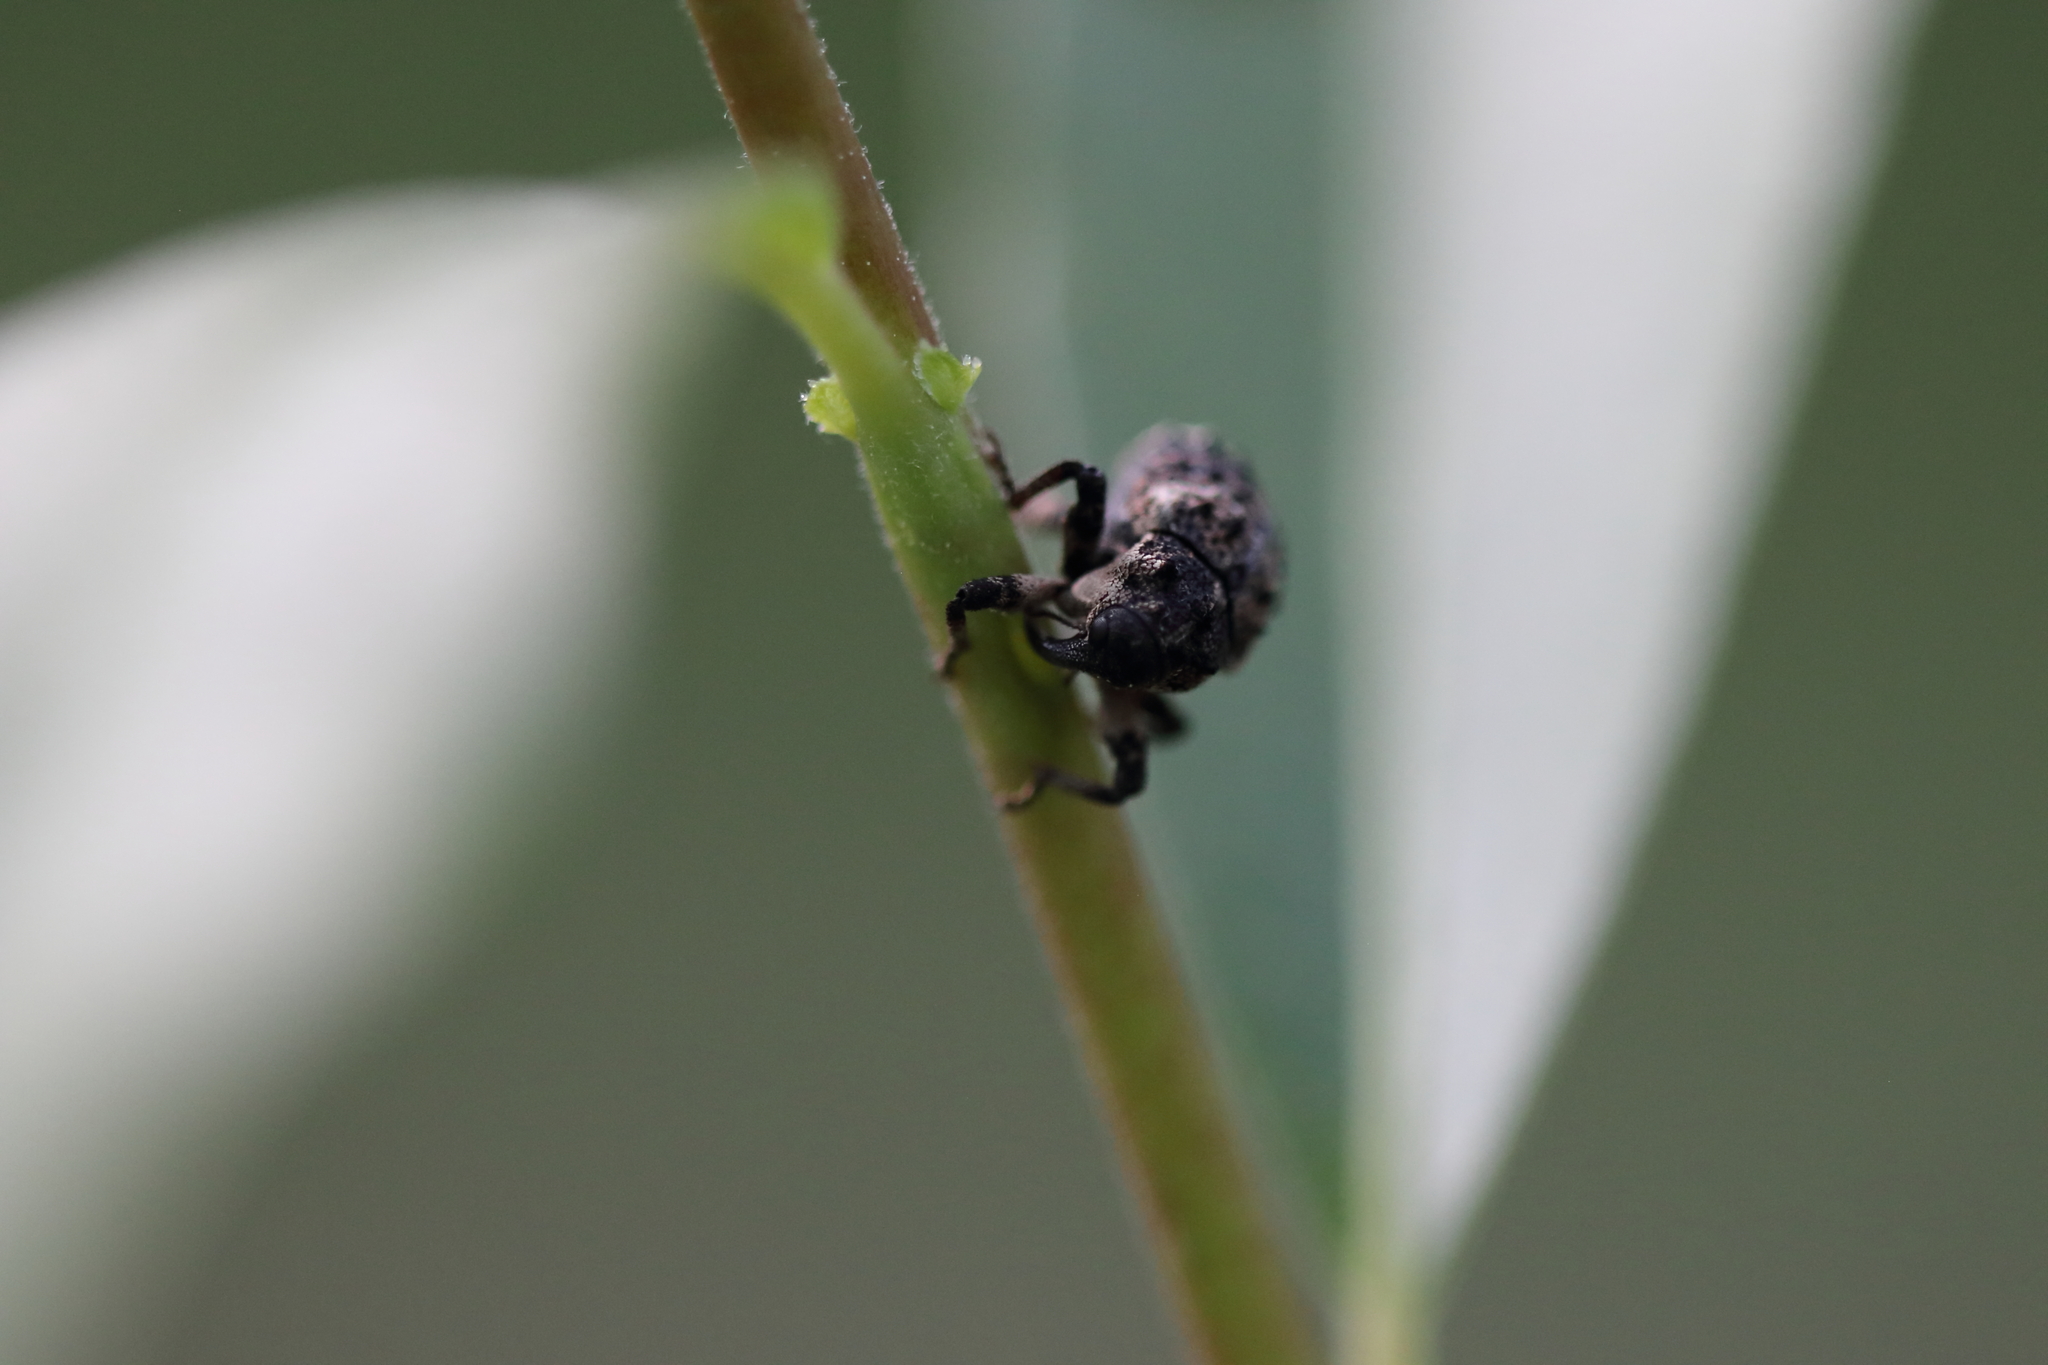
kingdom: Animalia
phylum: Arthropoda
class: Insecta
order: Coleoptera
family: Curculionidae
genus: Cryptorhynchus
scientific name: Cryptorhynchus lapathi
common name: Weevil
